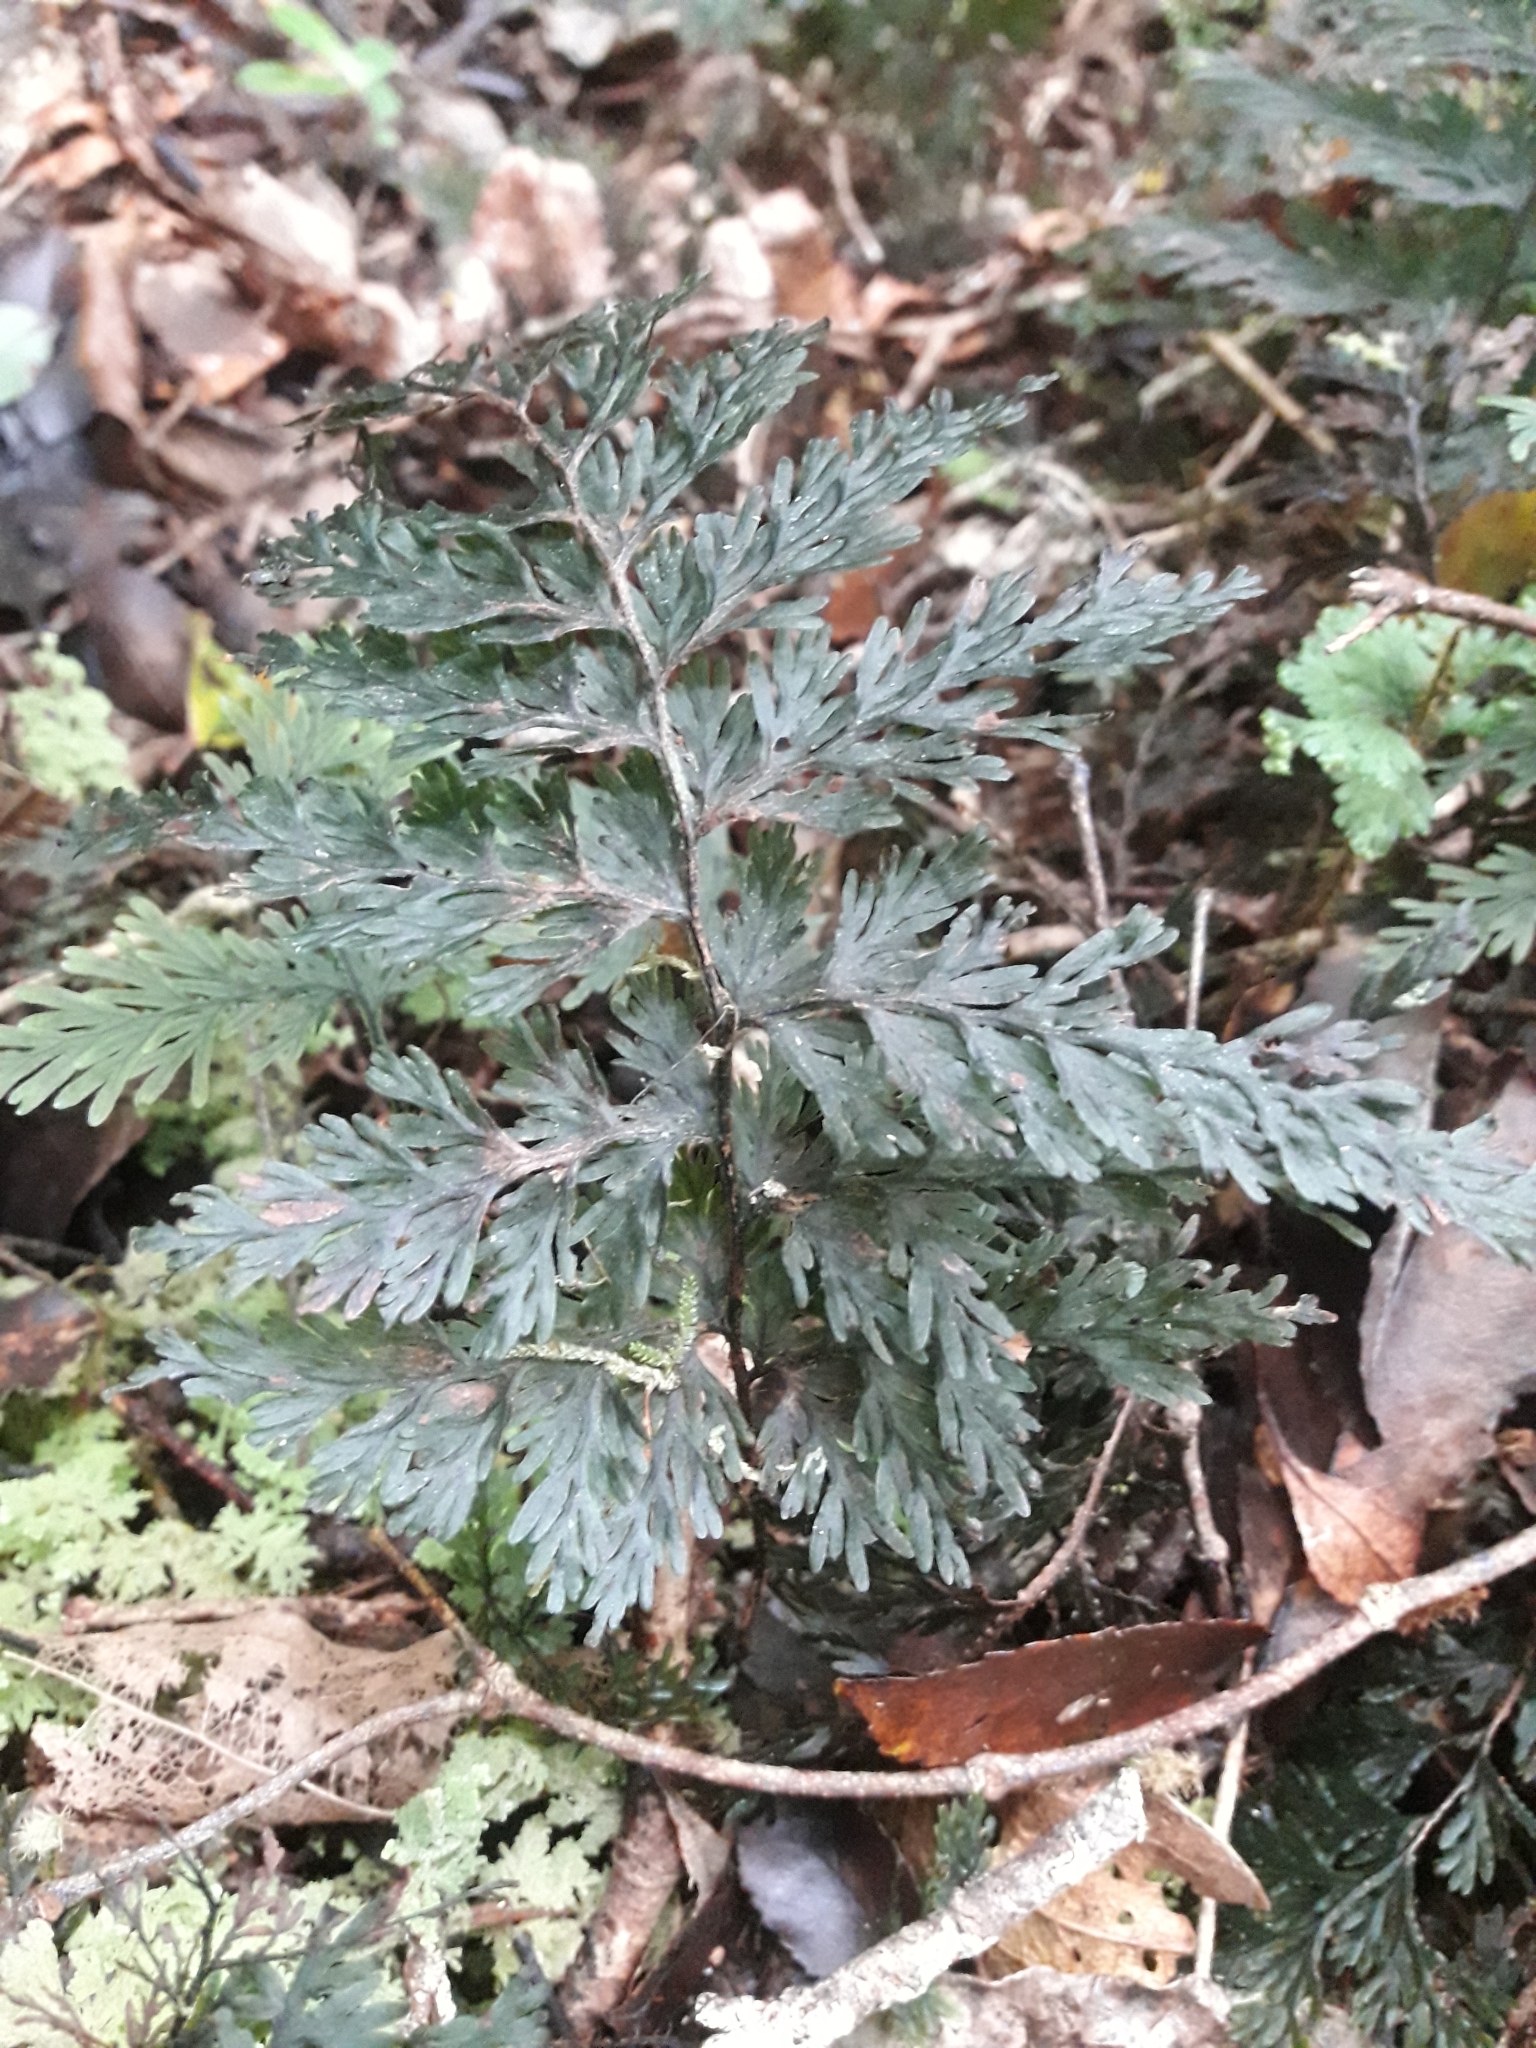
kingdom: Plantae
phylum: Tracheophyta
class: Polypodiopsida
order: Hymenophyllales
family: Hymenophyllaceae
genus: Hymenophyllum
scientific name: Hymenophyllum scabrum
